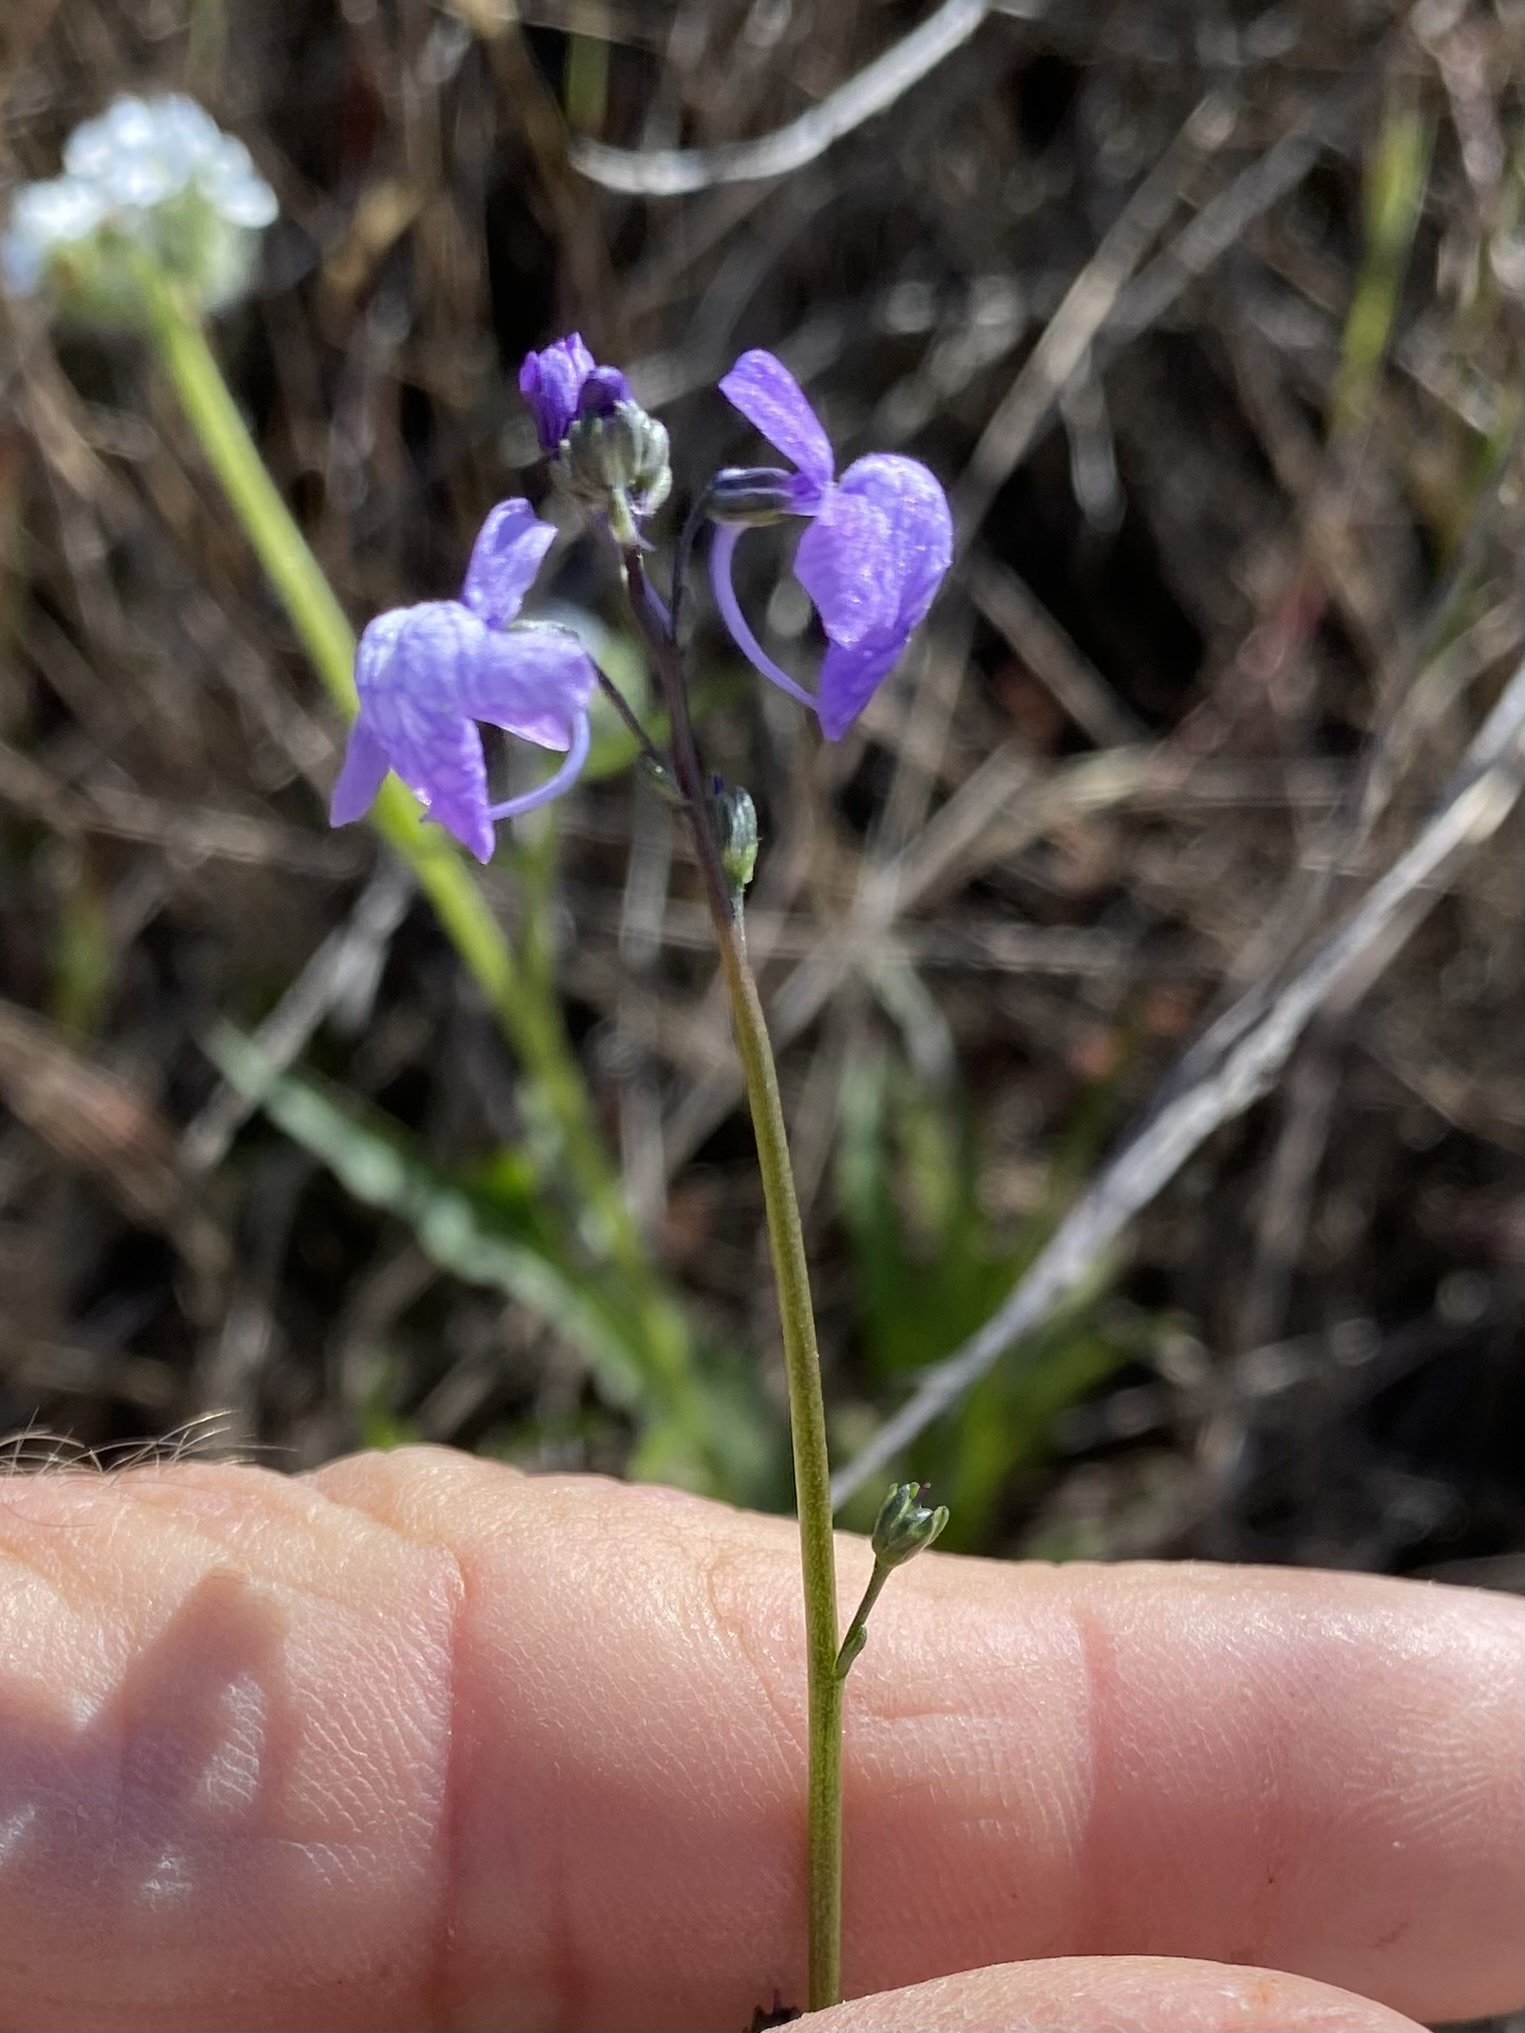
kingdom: Plantae
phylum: Tracheophyta
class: Magnoliopsida
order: Lamiales
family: Plantaginaceae
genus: Nuttallanthus
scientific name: Nuttallanthus texanus
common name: Texas toadflax
